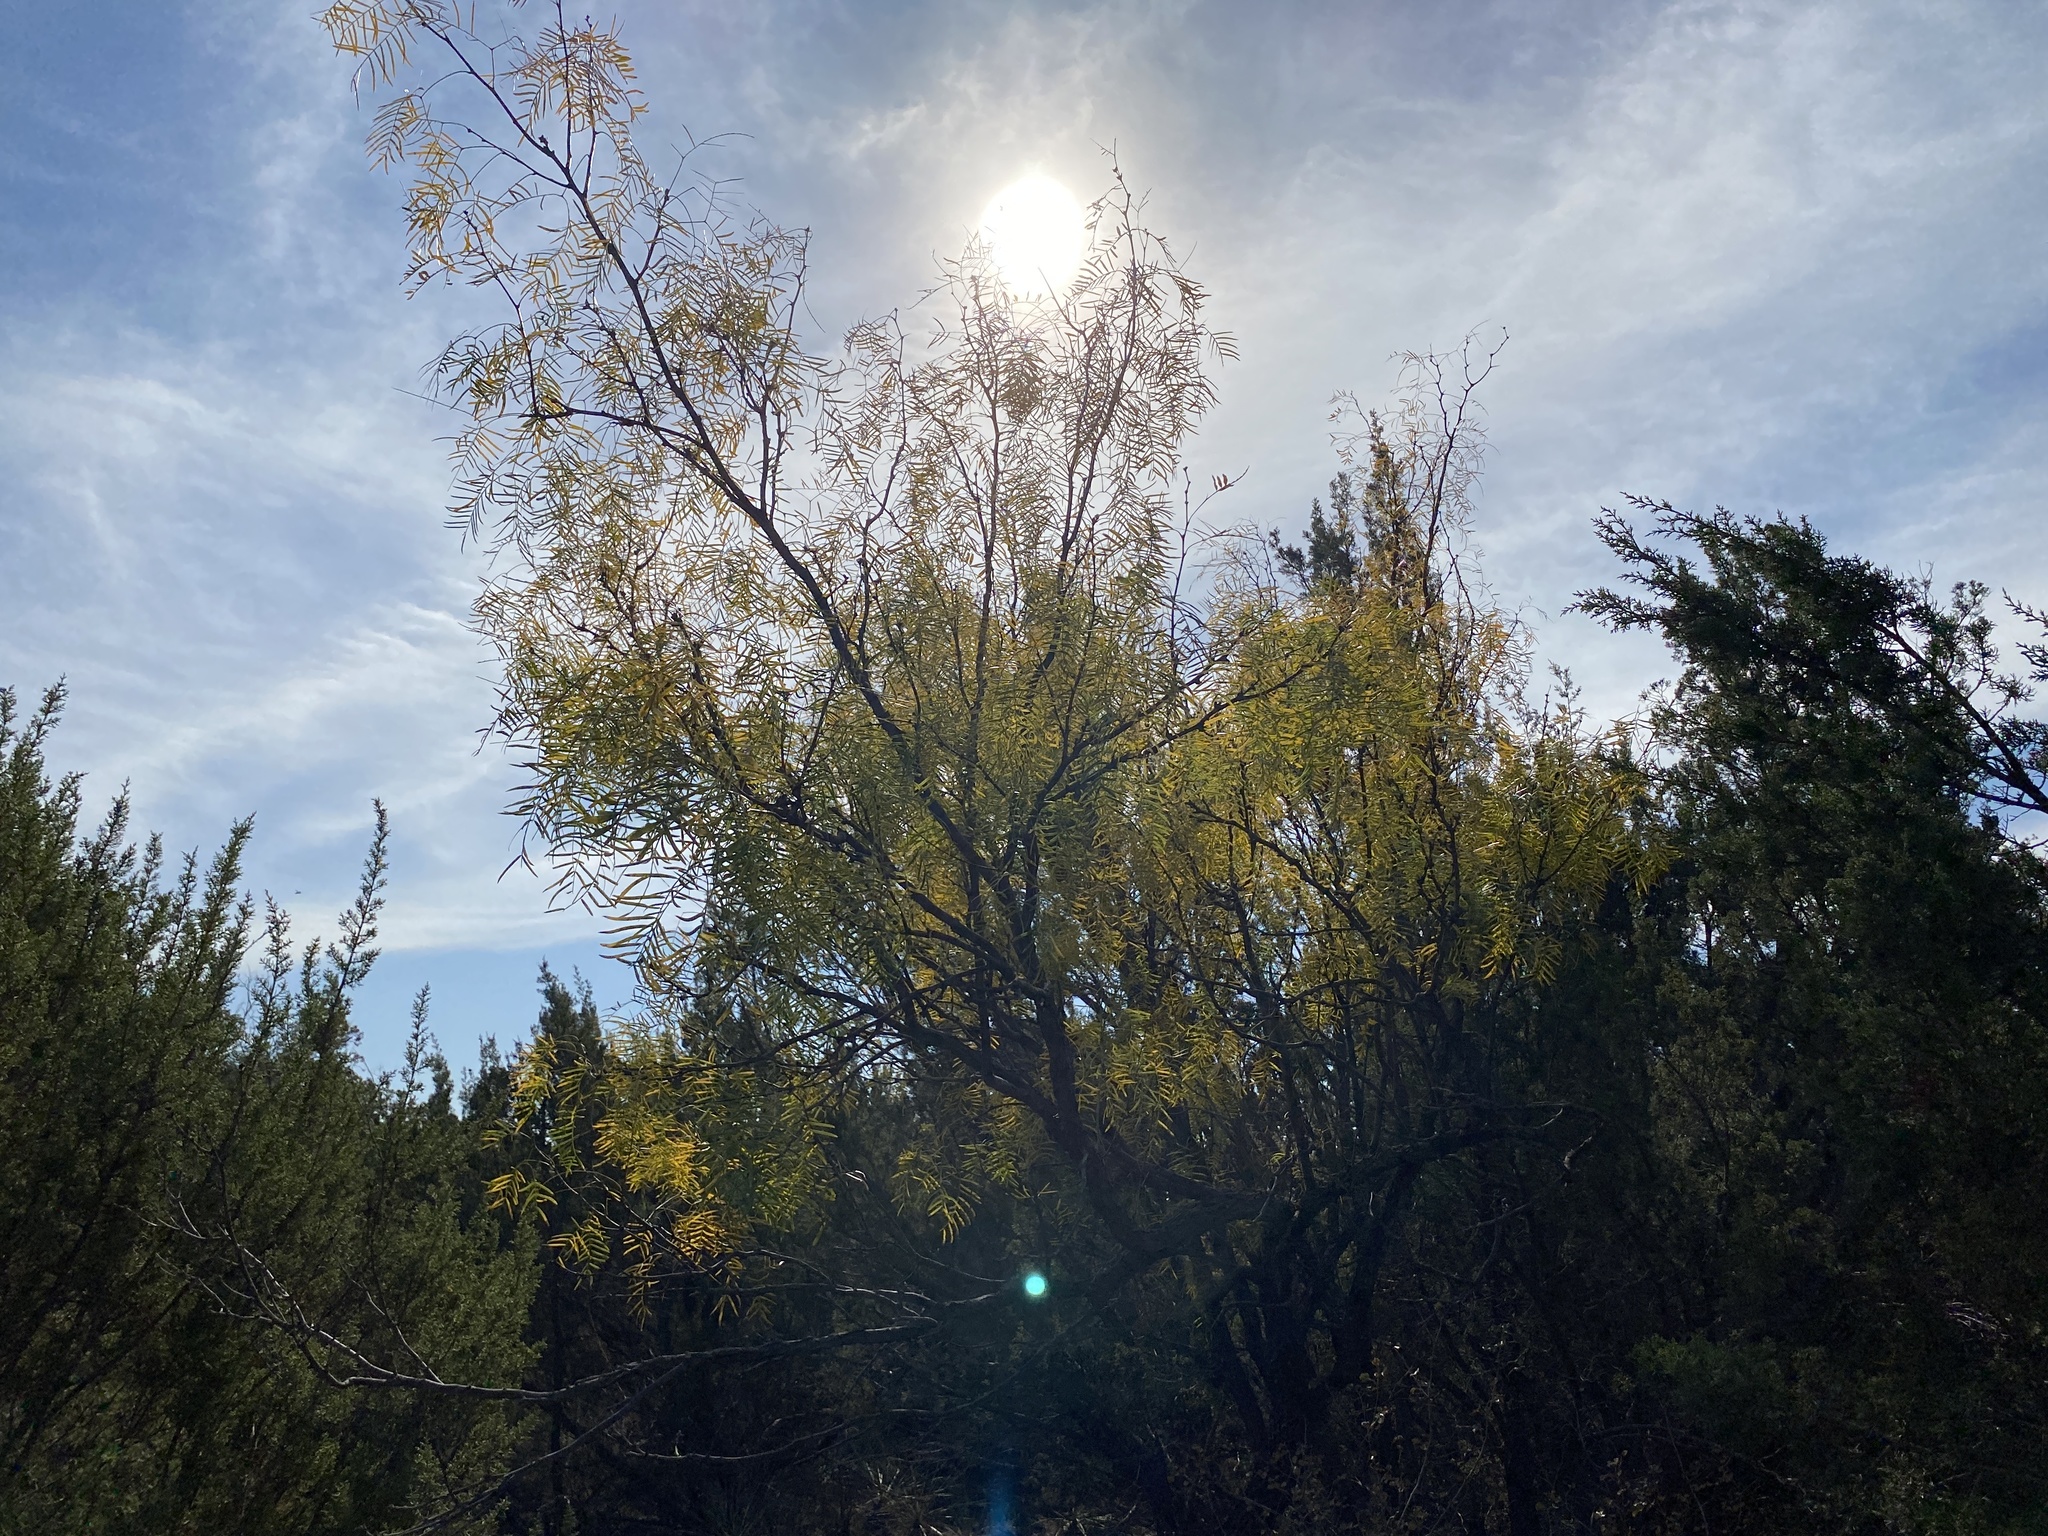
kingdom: Plantae
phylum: Tracheophyta
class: Magnoliopsida
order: Fabales
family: Fabaceae
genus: Prosopis
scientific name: Prosopis glandulosa
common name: Honey mesquite
